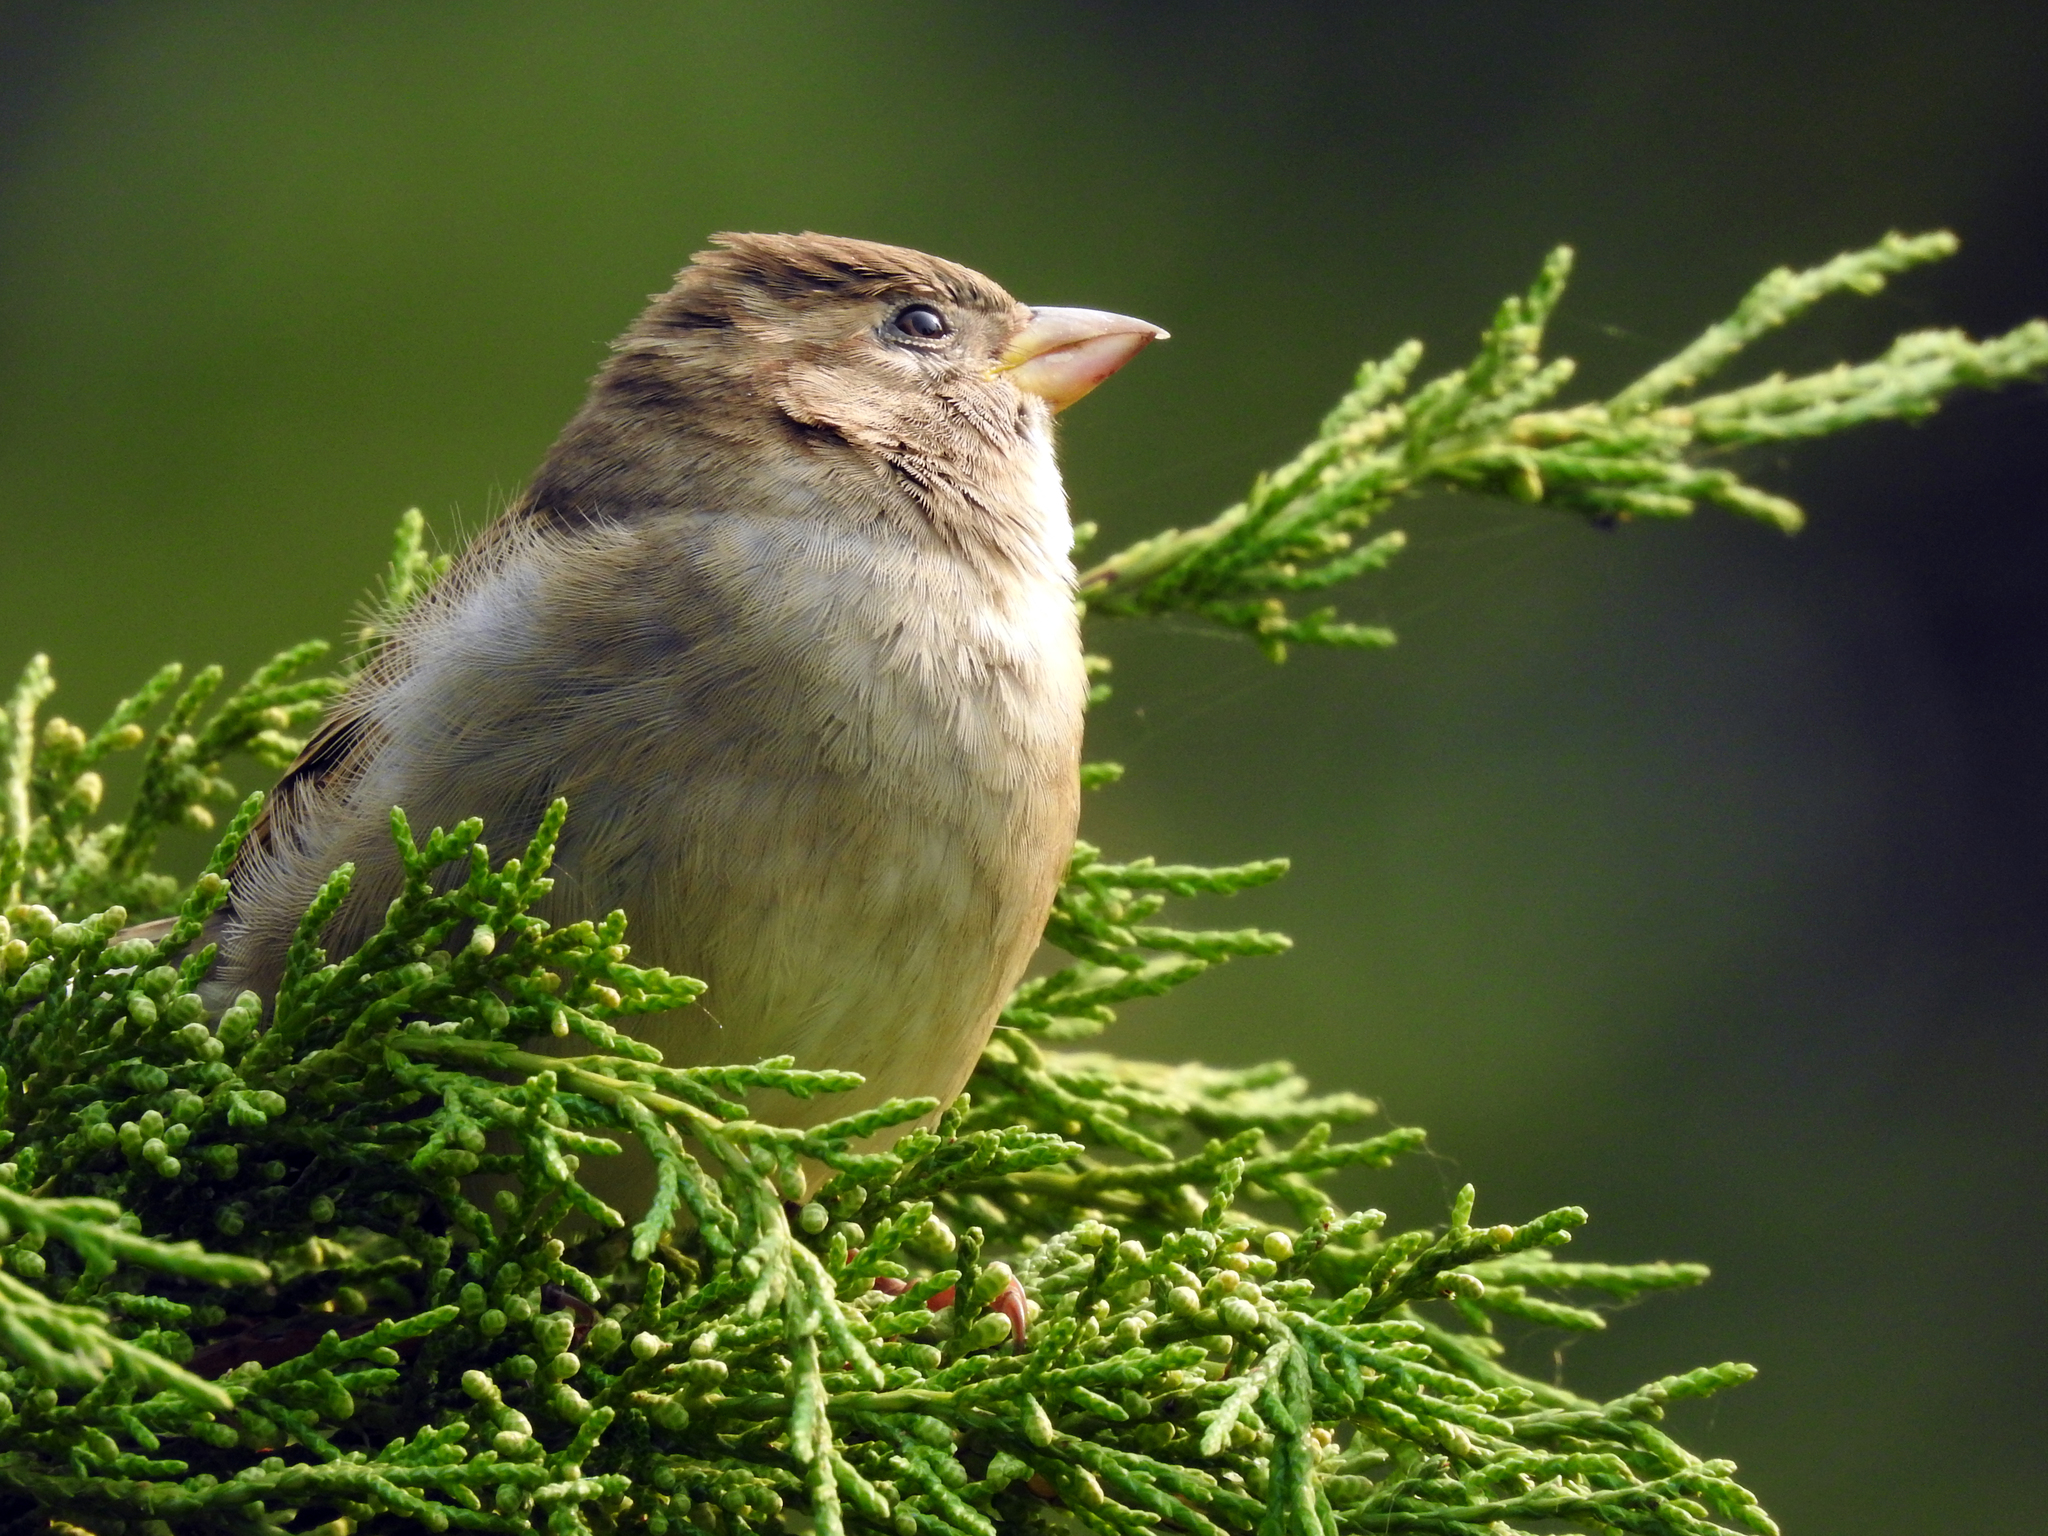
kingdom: Animalia
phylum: Chordata
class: Aves
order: Passeriformes
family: Passeridae
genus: Passer
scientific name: Passer domesticus
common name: House sparrow
